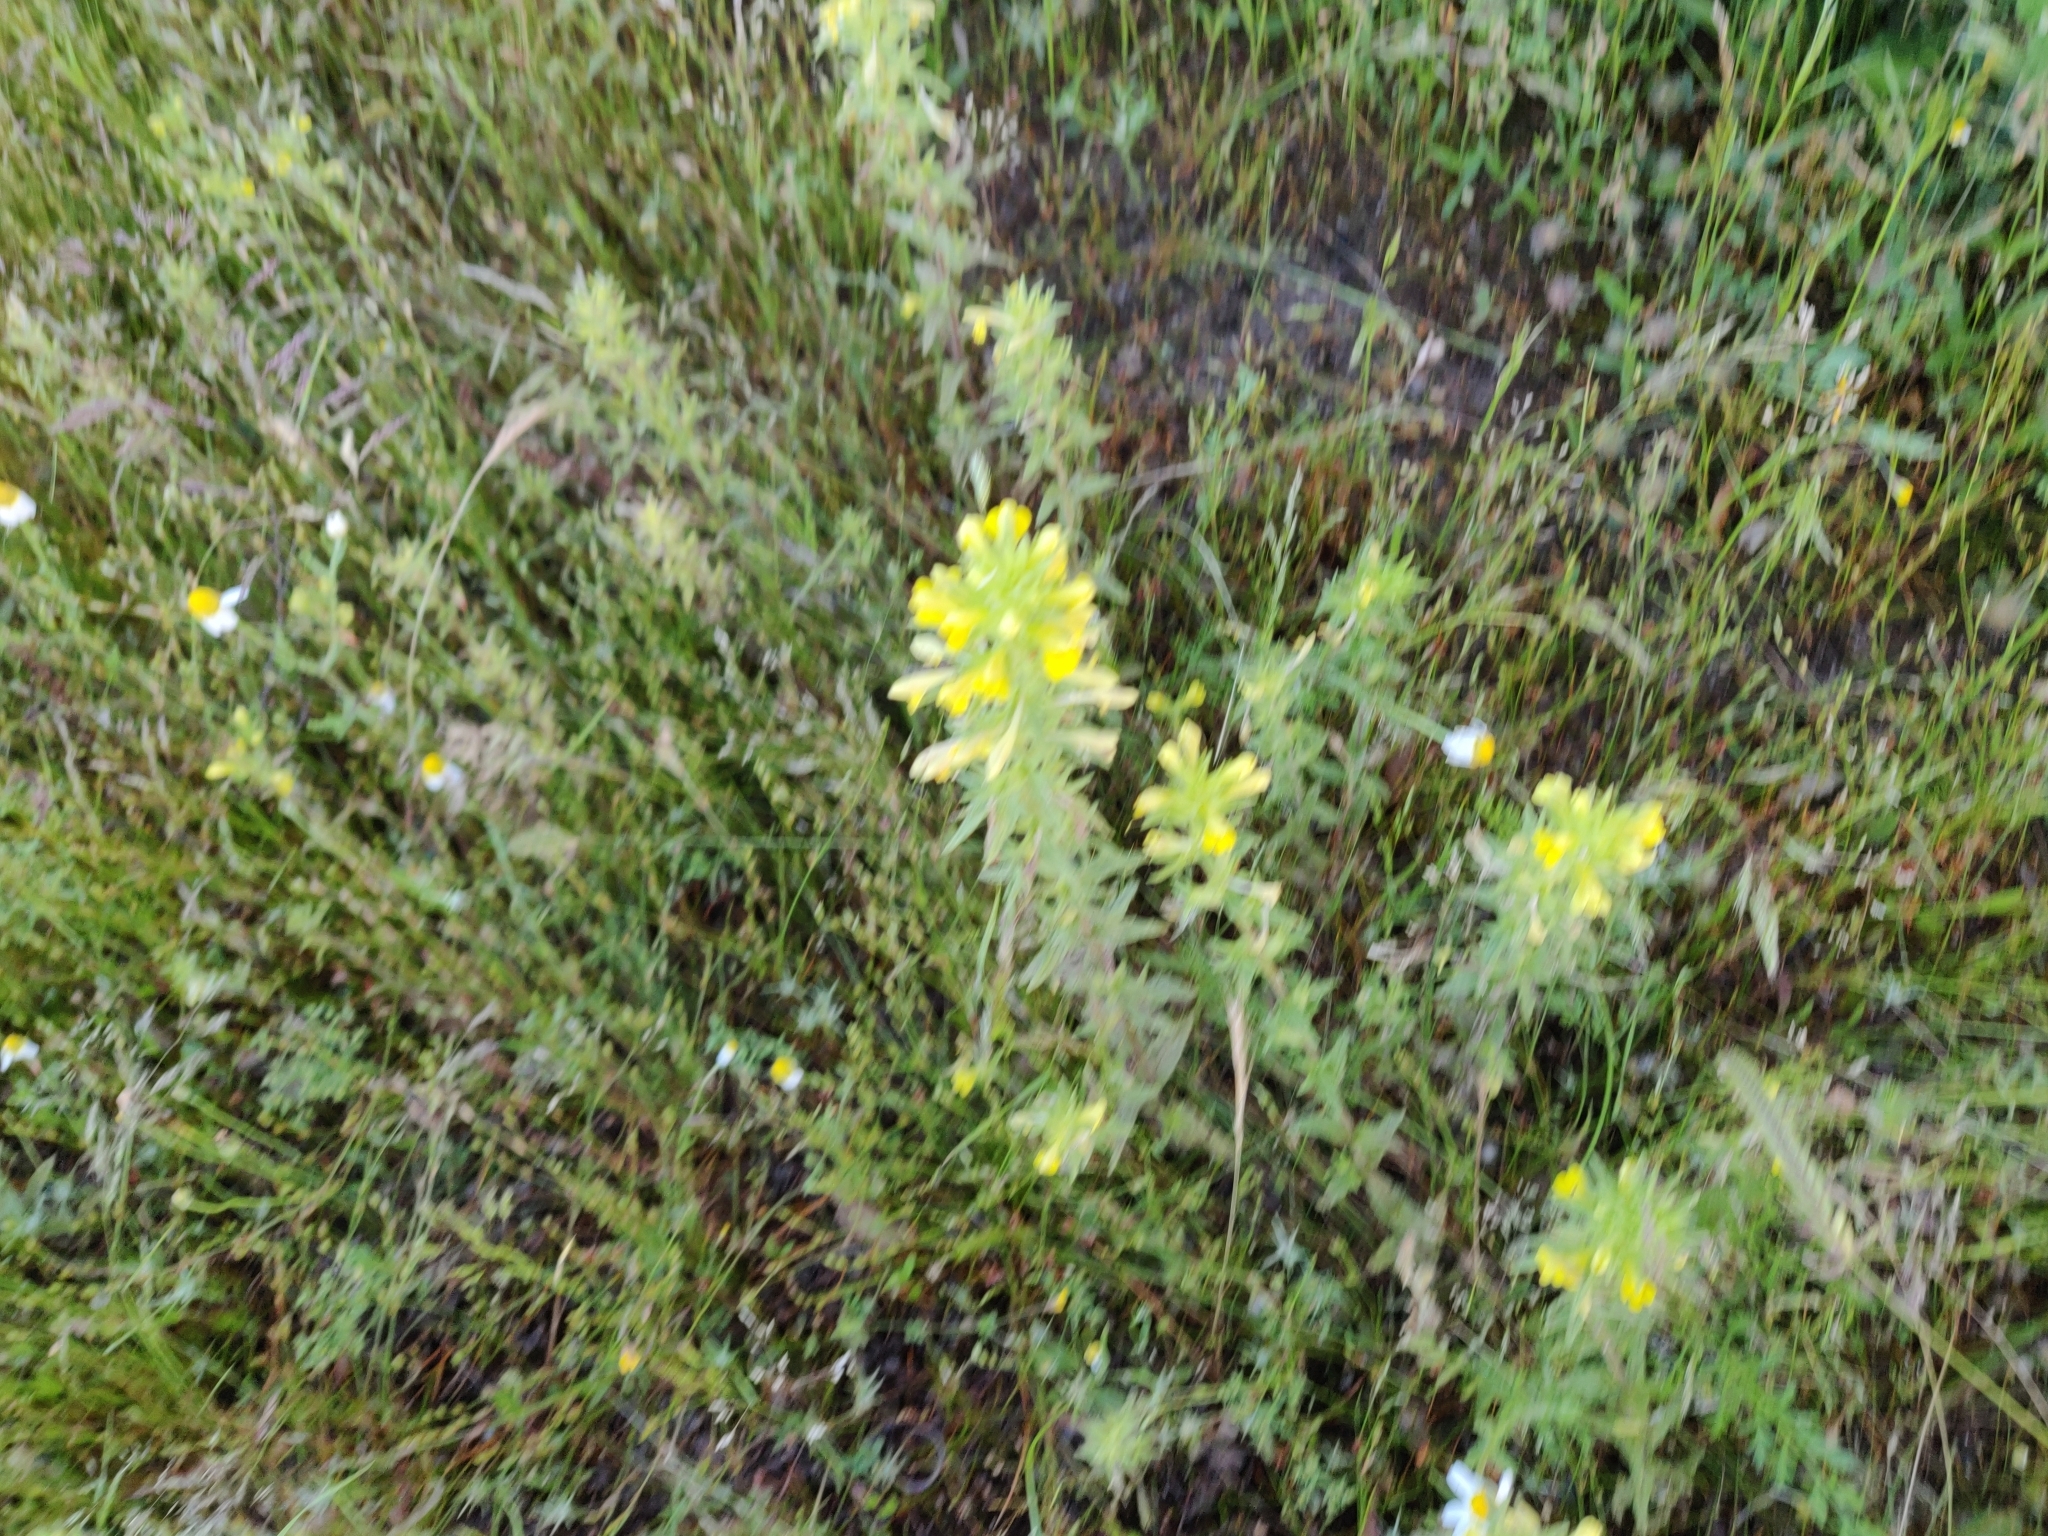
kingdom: Plantae
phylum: Tracheophyta
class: Magnoliopsida
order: Lamiales
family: Orobanchaceae
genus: Bellardia
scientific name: Bellardia viscosa
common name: Sticky parentucellia
